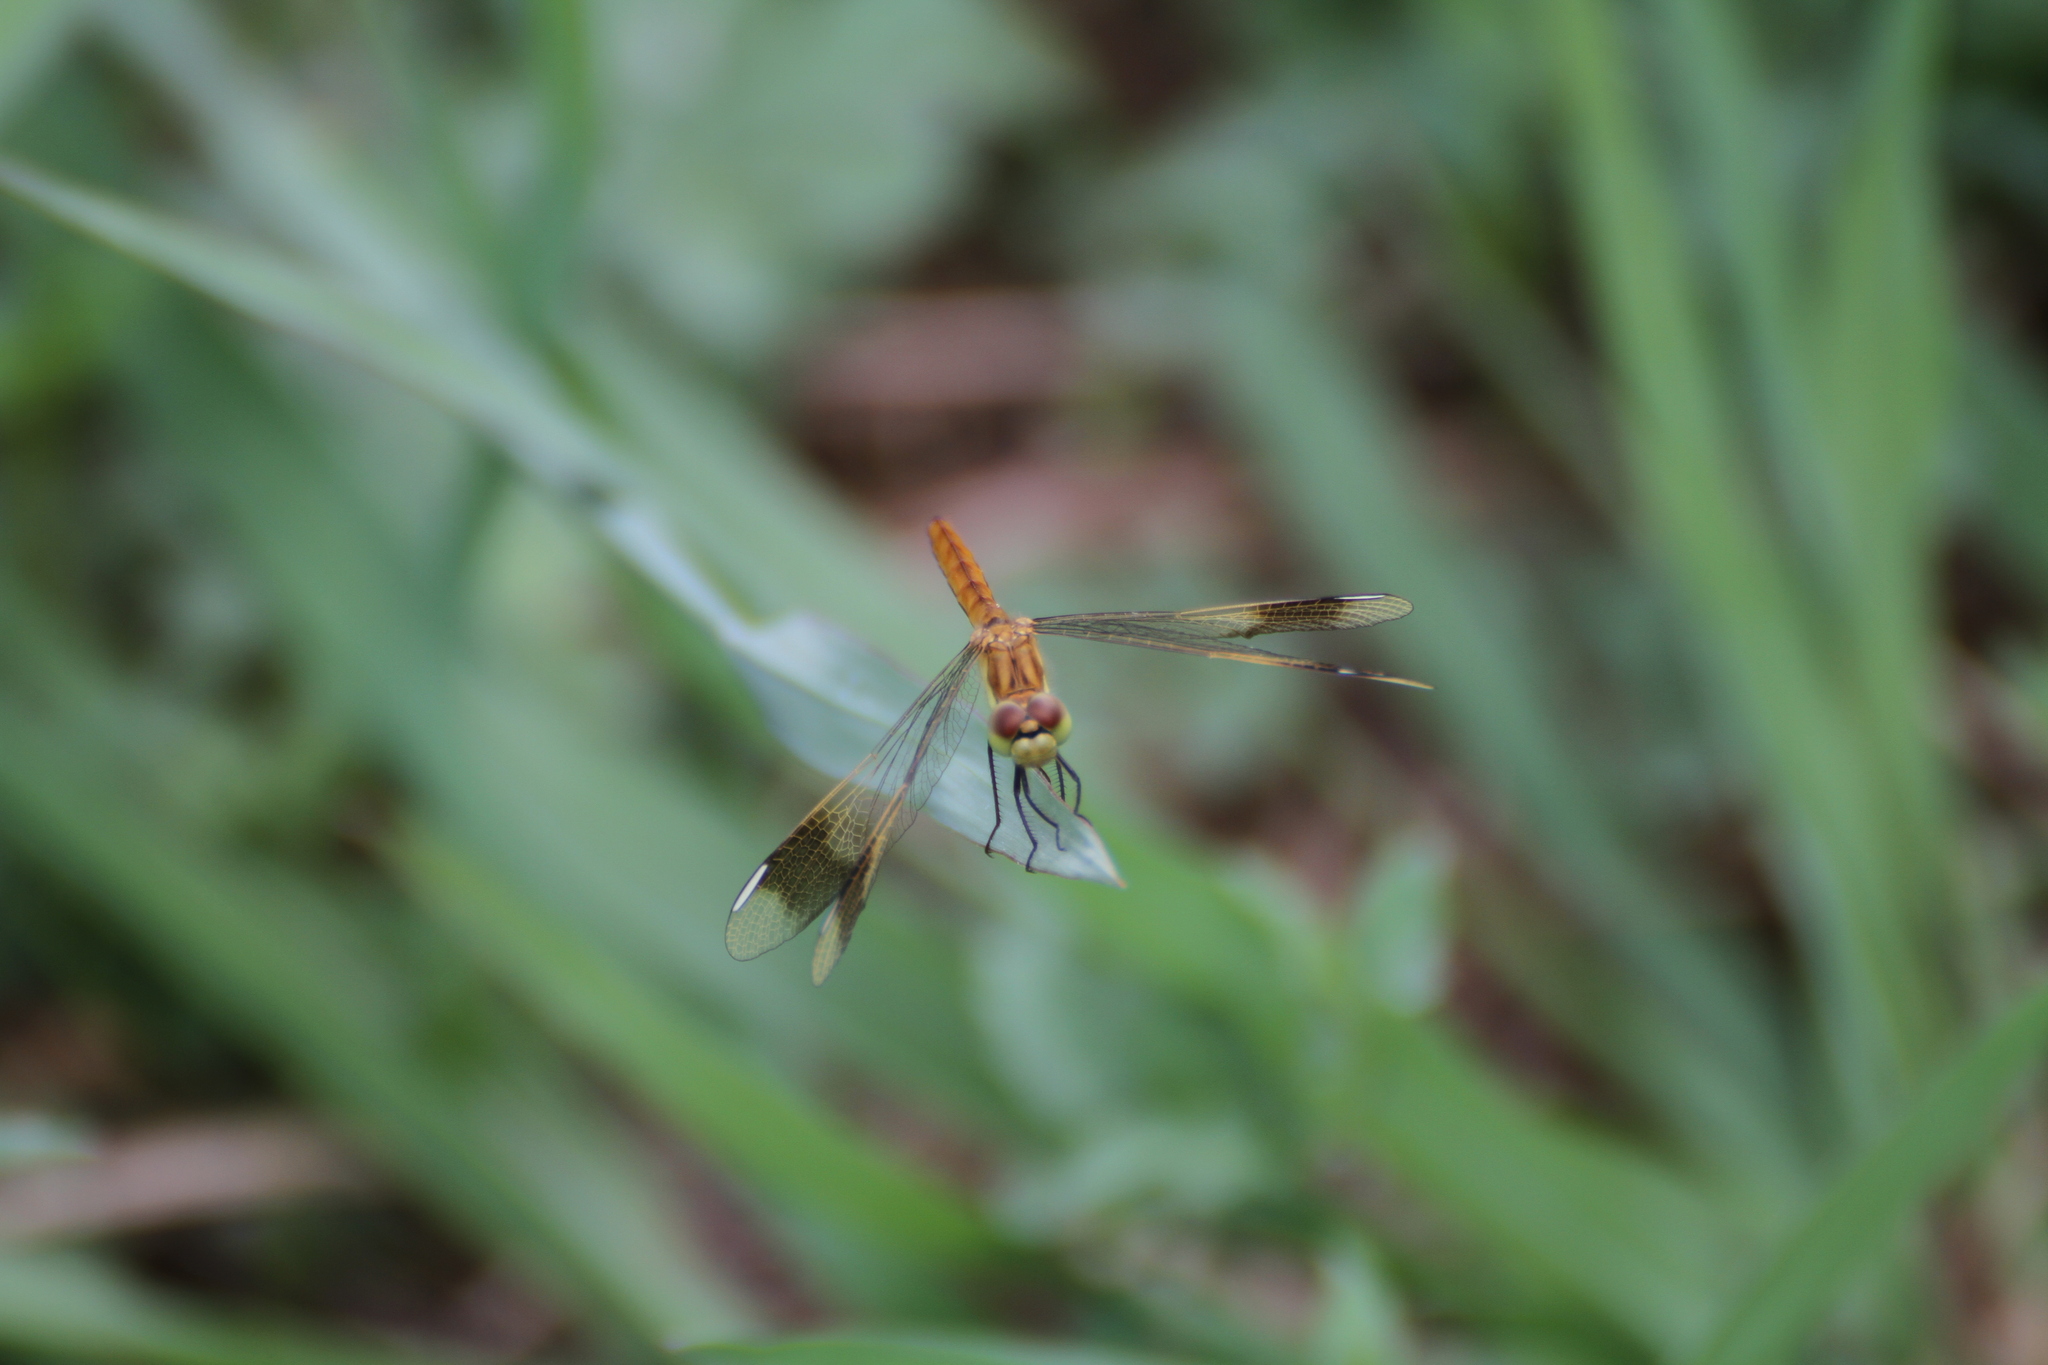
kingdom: Animalia
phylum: Arthropoda
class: Insecta
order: Odonata
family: Libellulidae
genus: Sympetrum
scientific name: Sympetrum pedemontanum
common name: Banded darter
